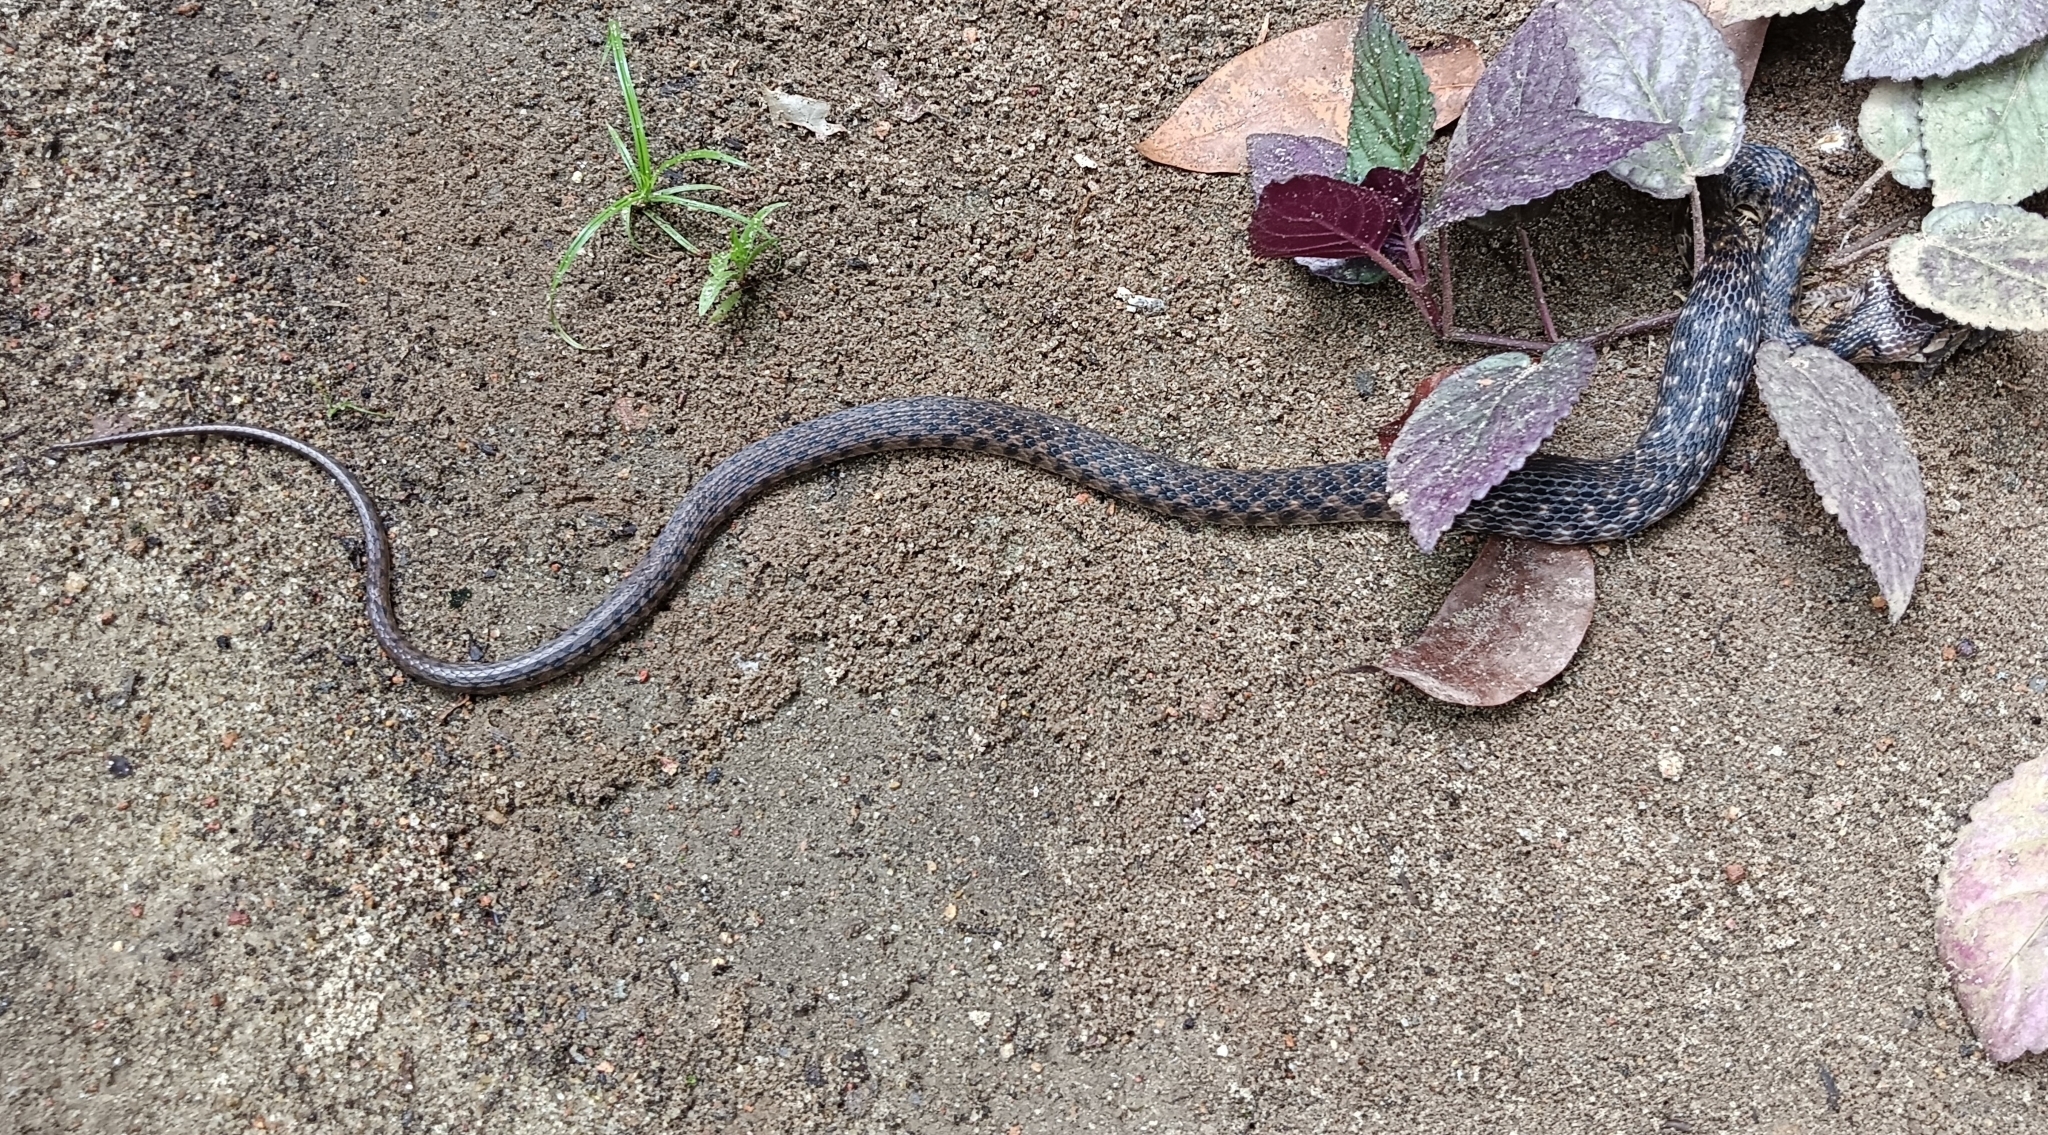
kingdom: Animalia
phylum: Chordata
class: Squamata
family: Colubridae
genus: Fowlea
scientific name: Fowlea piscator
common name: Asiatic water snake
